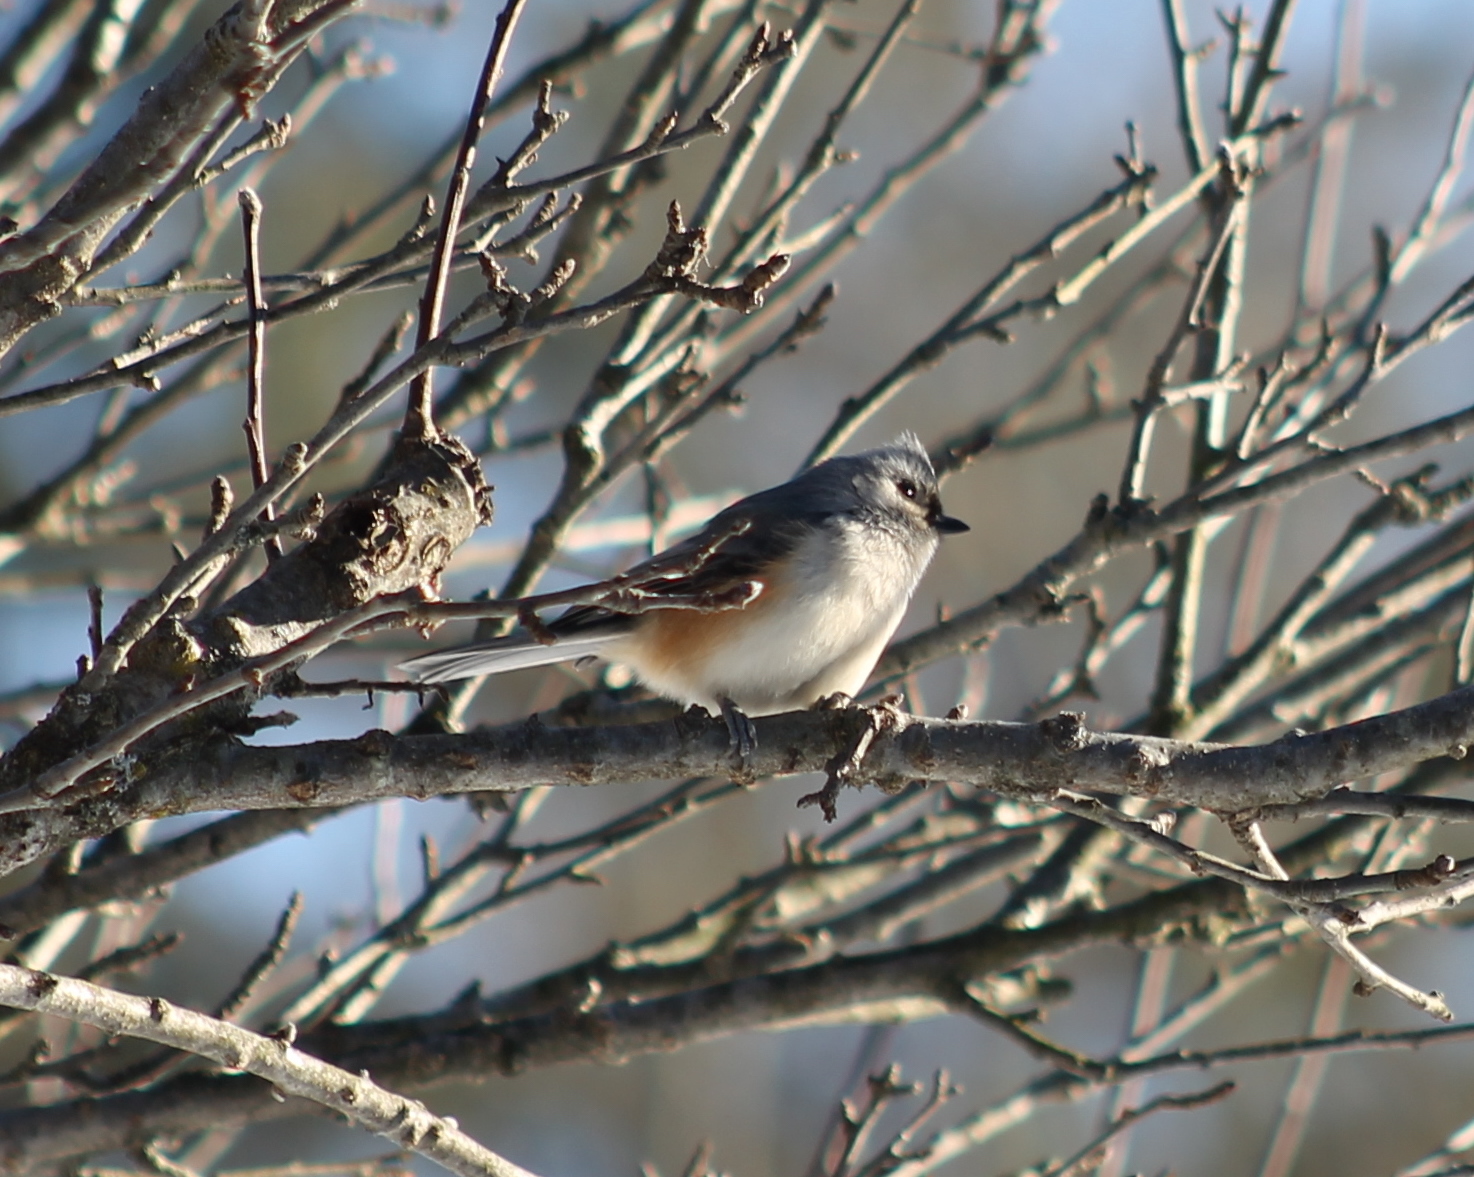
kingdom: Animalia
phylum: Chordata
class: Aves
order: Passeriformes
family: Paridae
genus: Baeolophus
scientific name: Baeolophus bicolor
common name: Tufted titmouse
